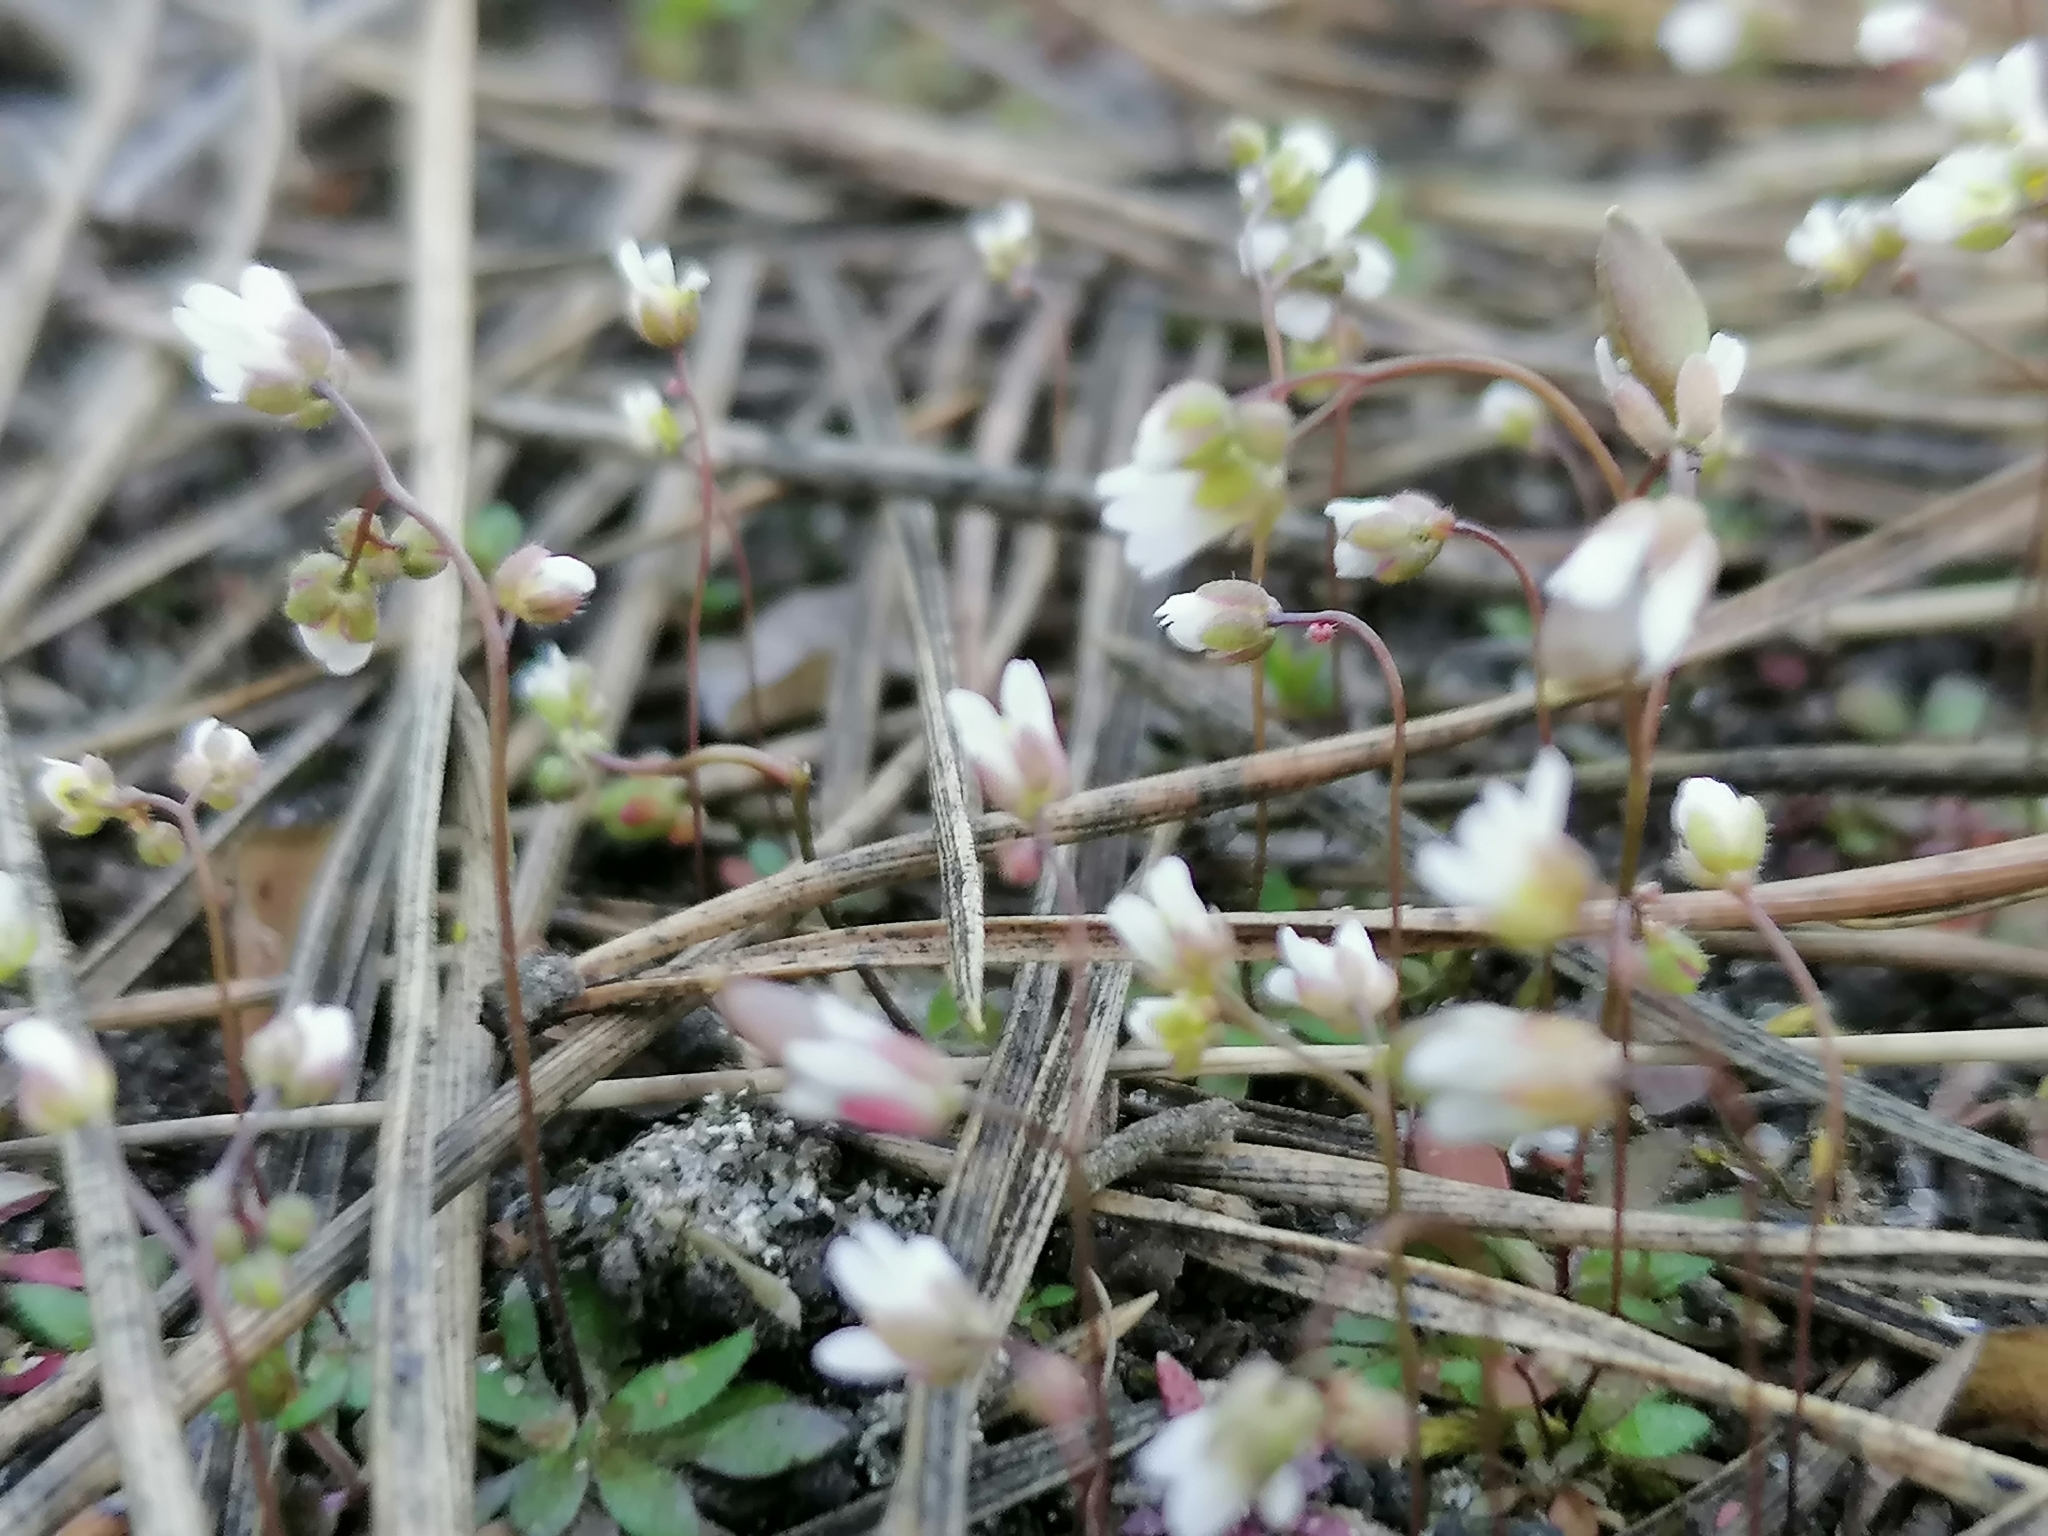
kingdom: Plantae
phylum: Tracheophyta
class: Magnoliopsida
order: Brassicales
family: Brassicaceae
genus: Draba
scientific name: Draba verna
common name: Spring draba
